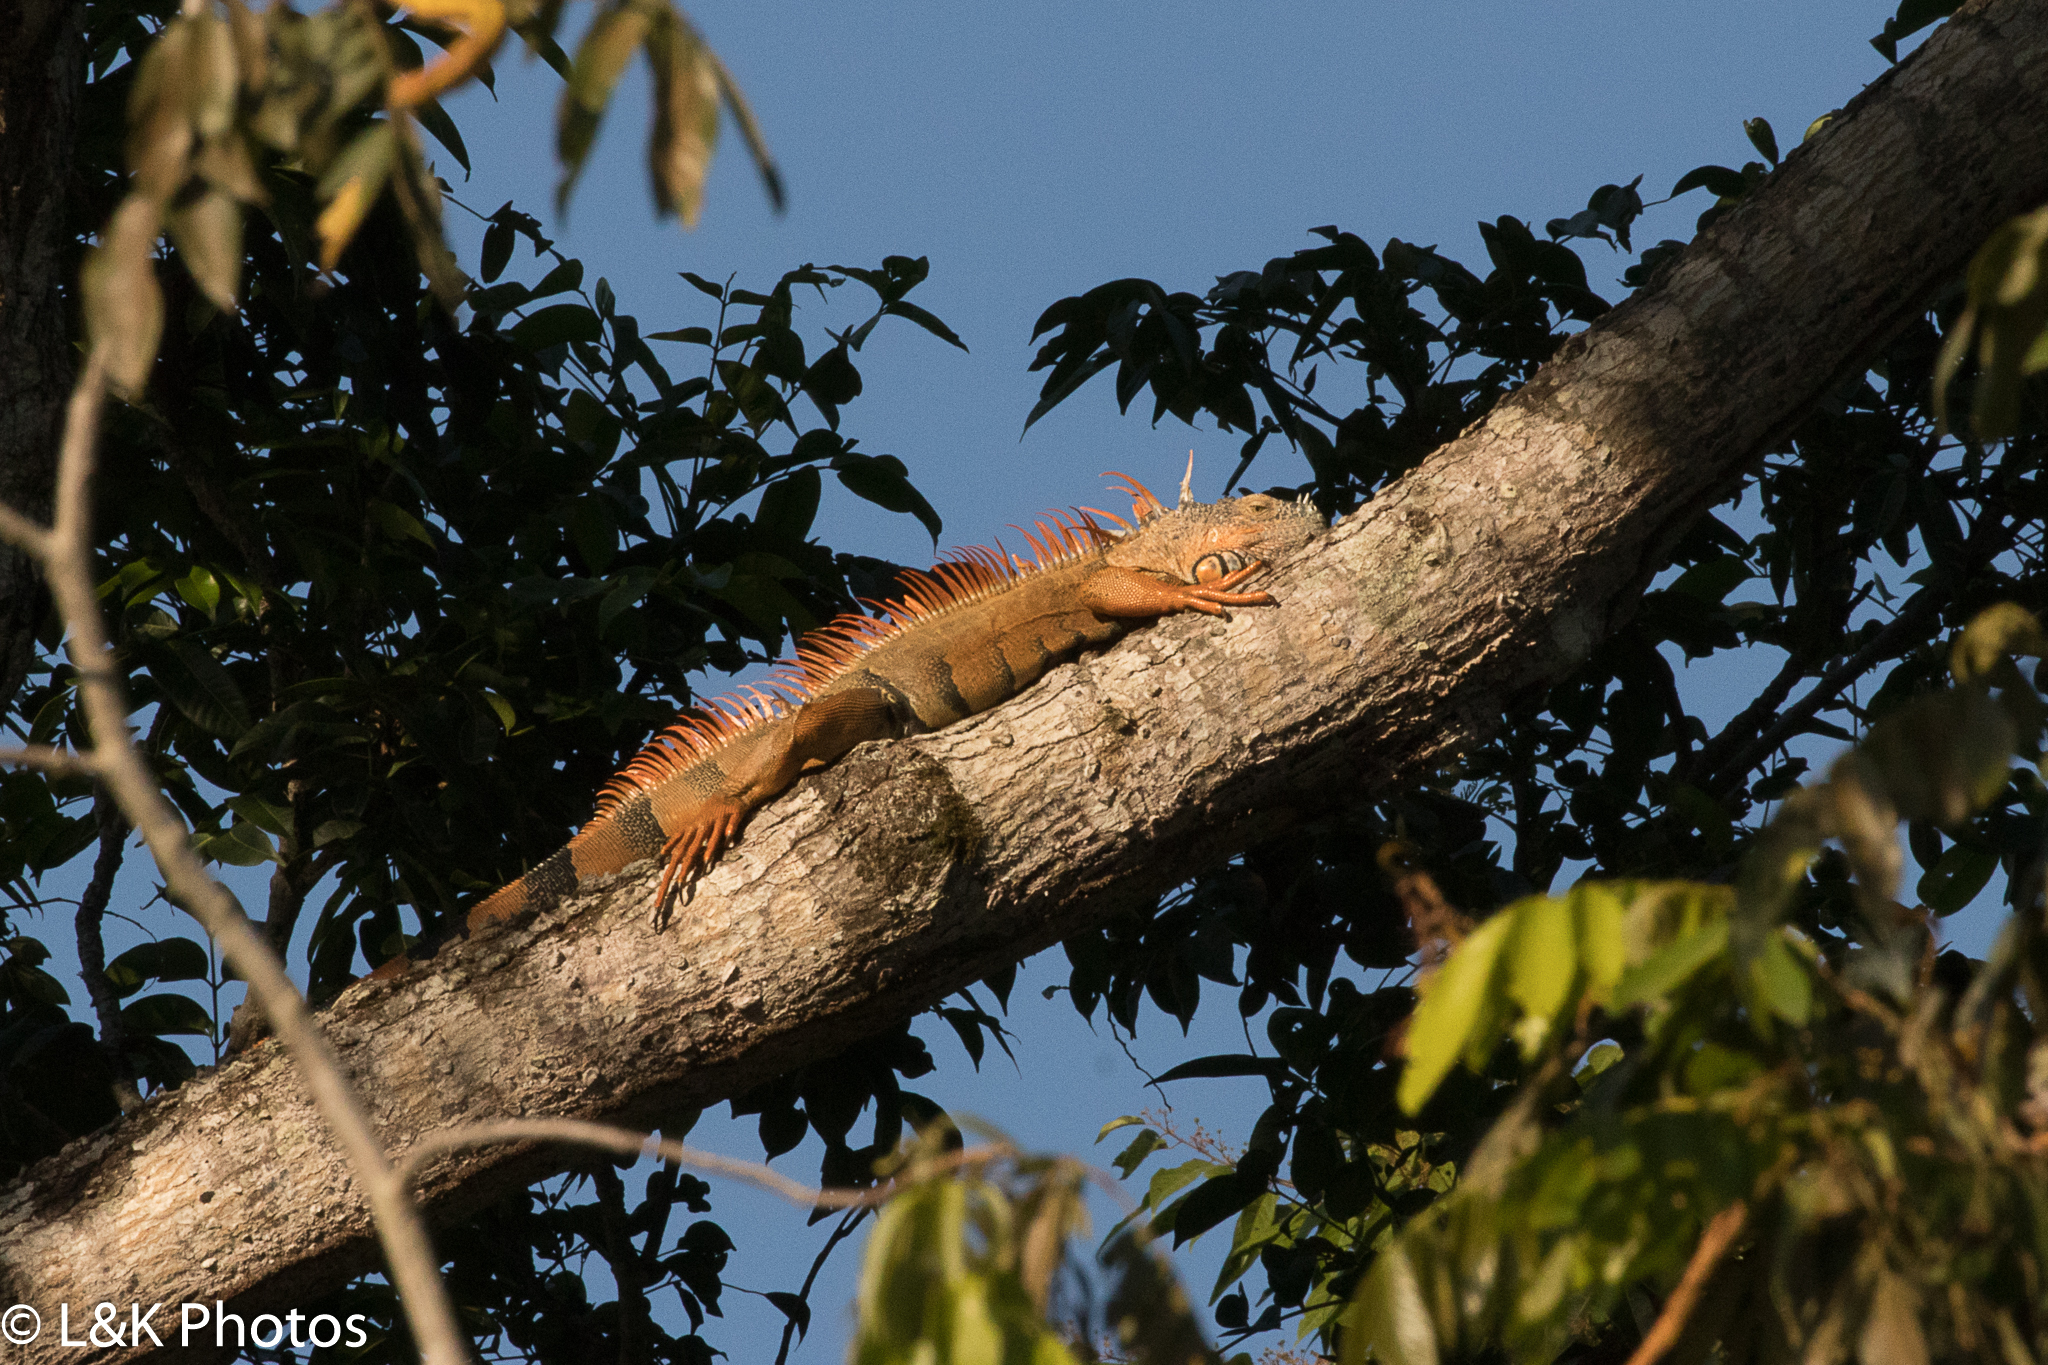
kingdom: Animalia
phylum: Chordata
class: Squamata
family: Iguanidae
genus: Iguana
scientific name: Iguana iguana
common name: Green iguana
